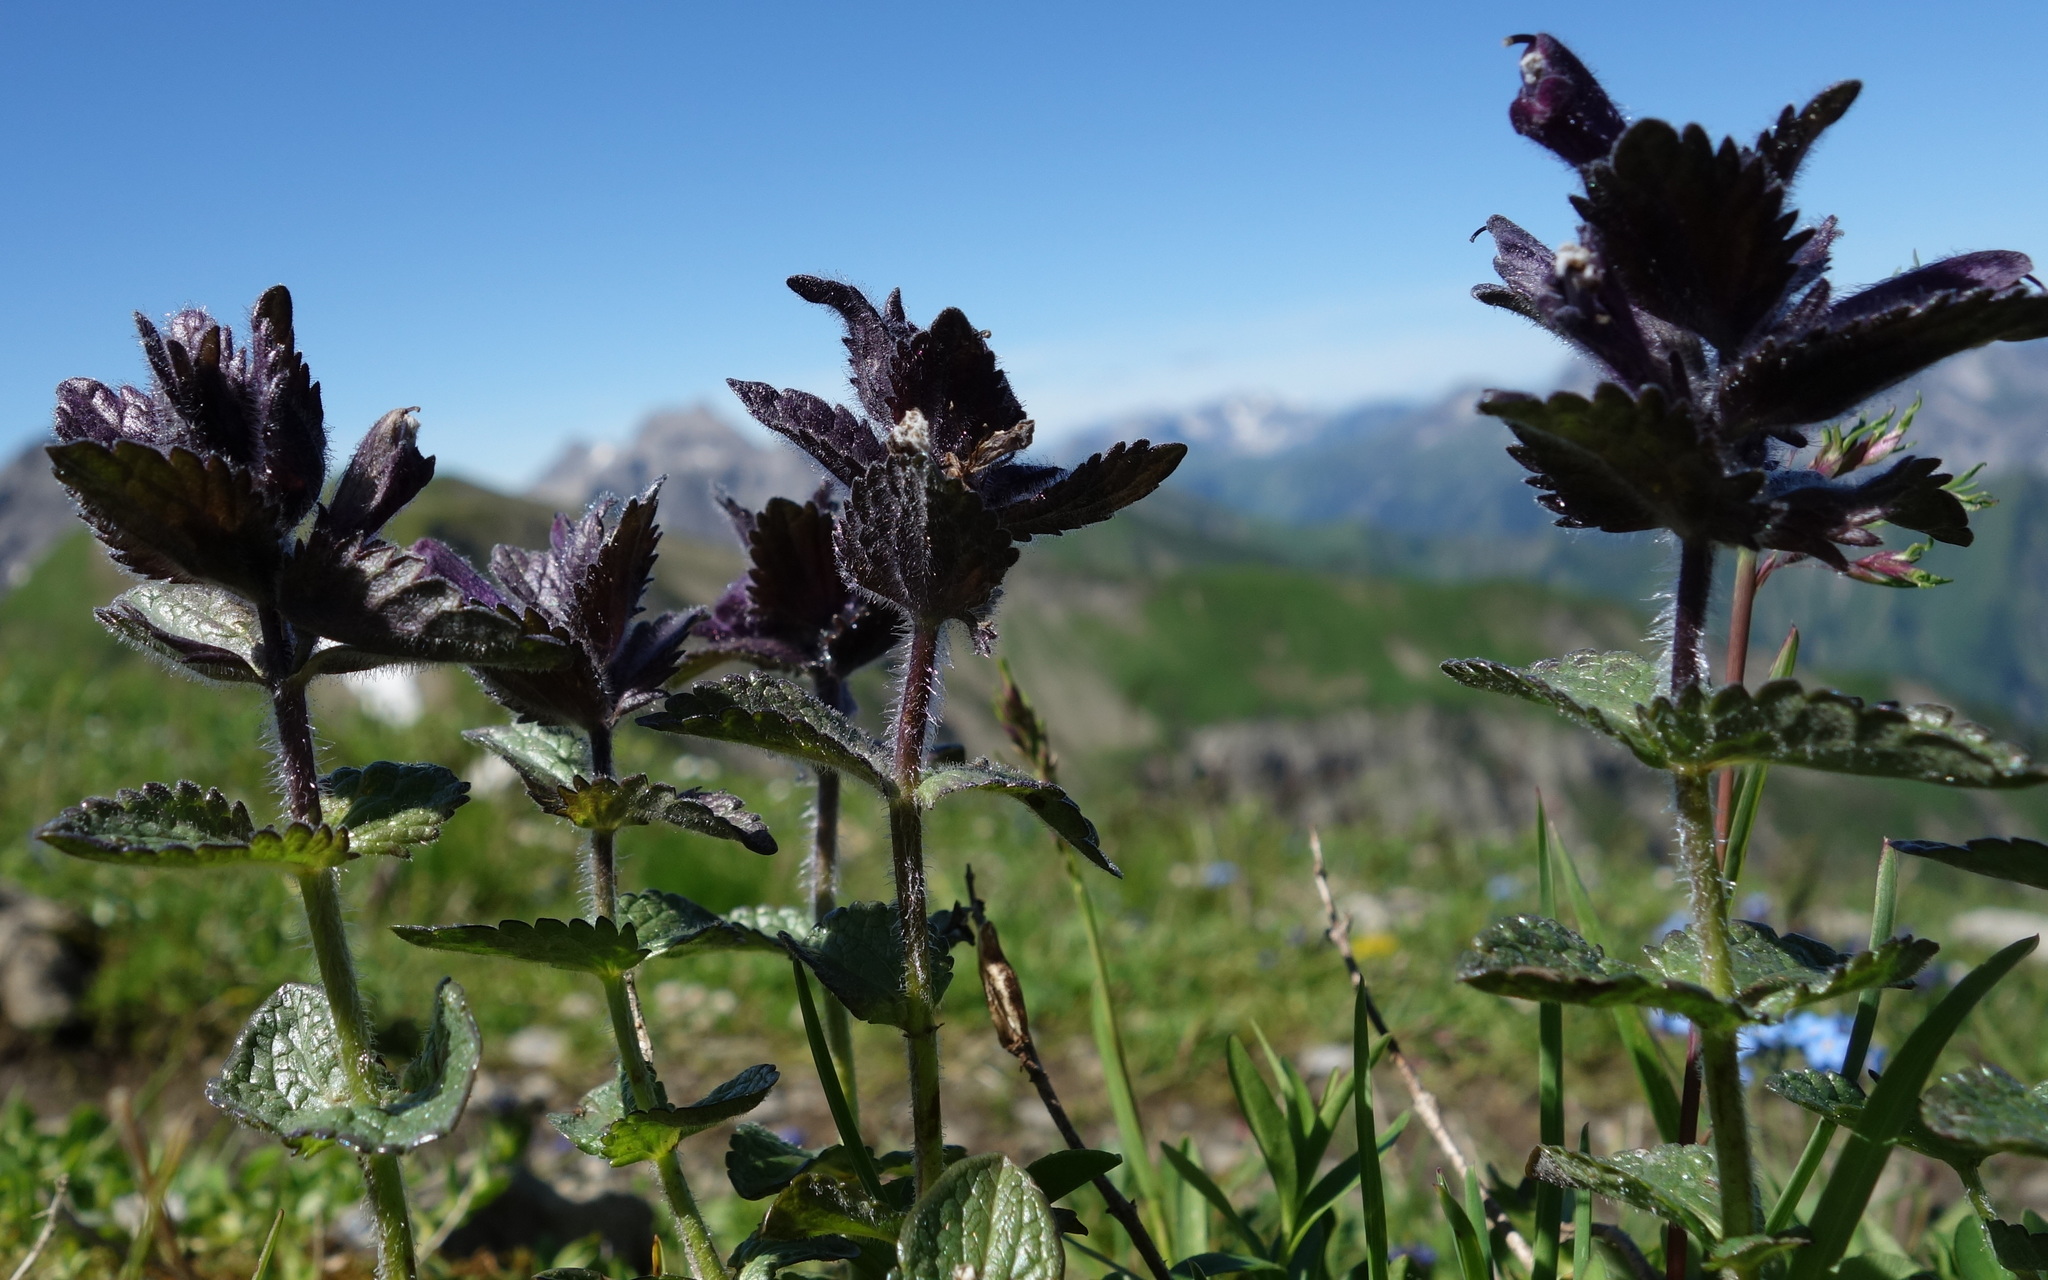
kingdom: Plantae
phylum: Tracheophyta
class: Magnoliopsida
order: Lamiales
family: Orobanchaceae
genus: Bartsia
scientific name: Bartsia alpina
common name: Alpine bartsia
